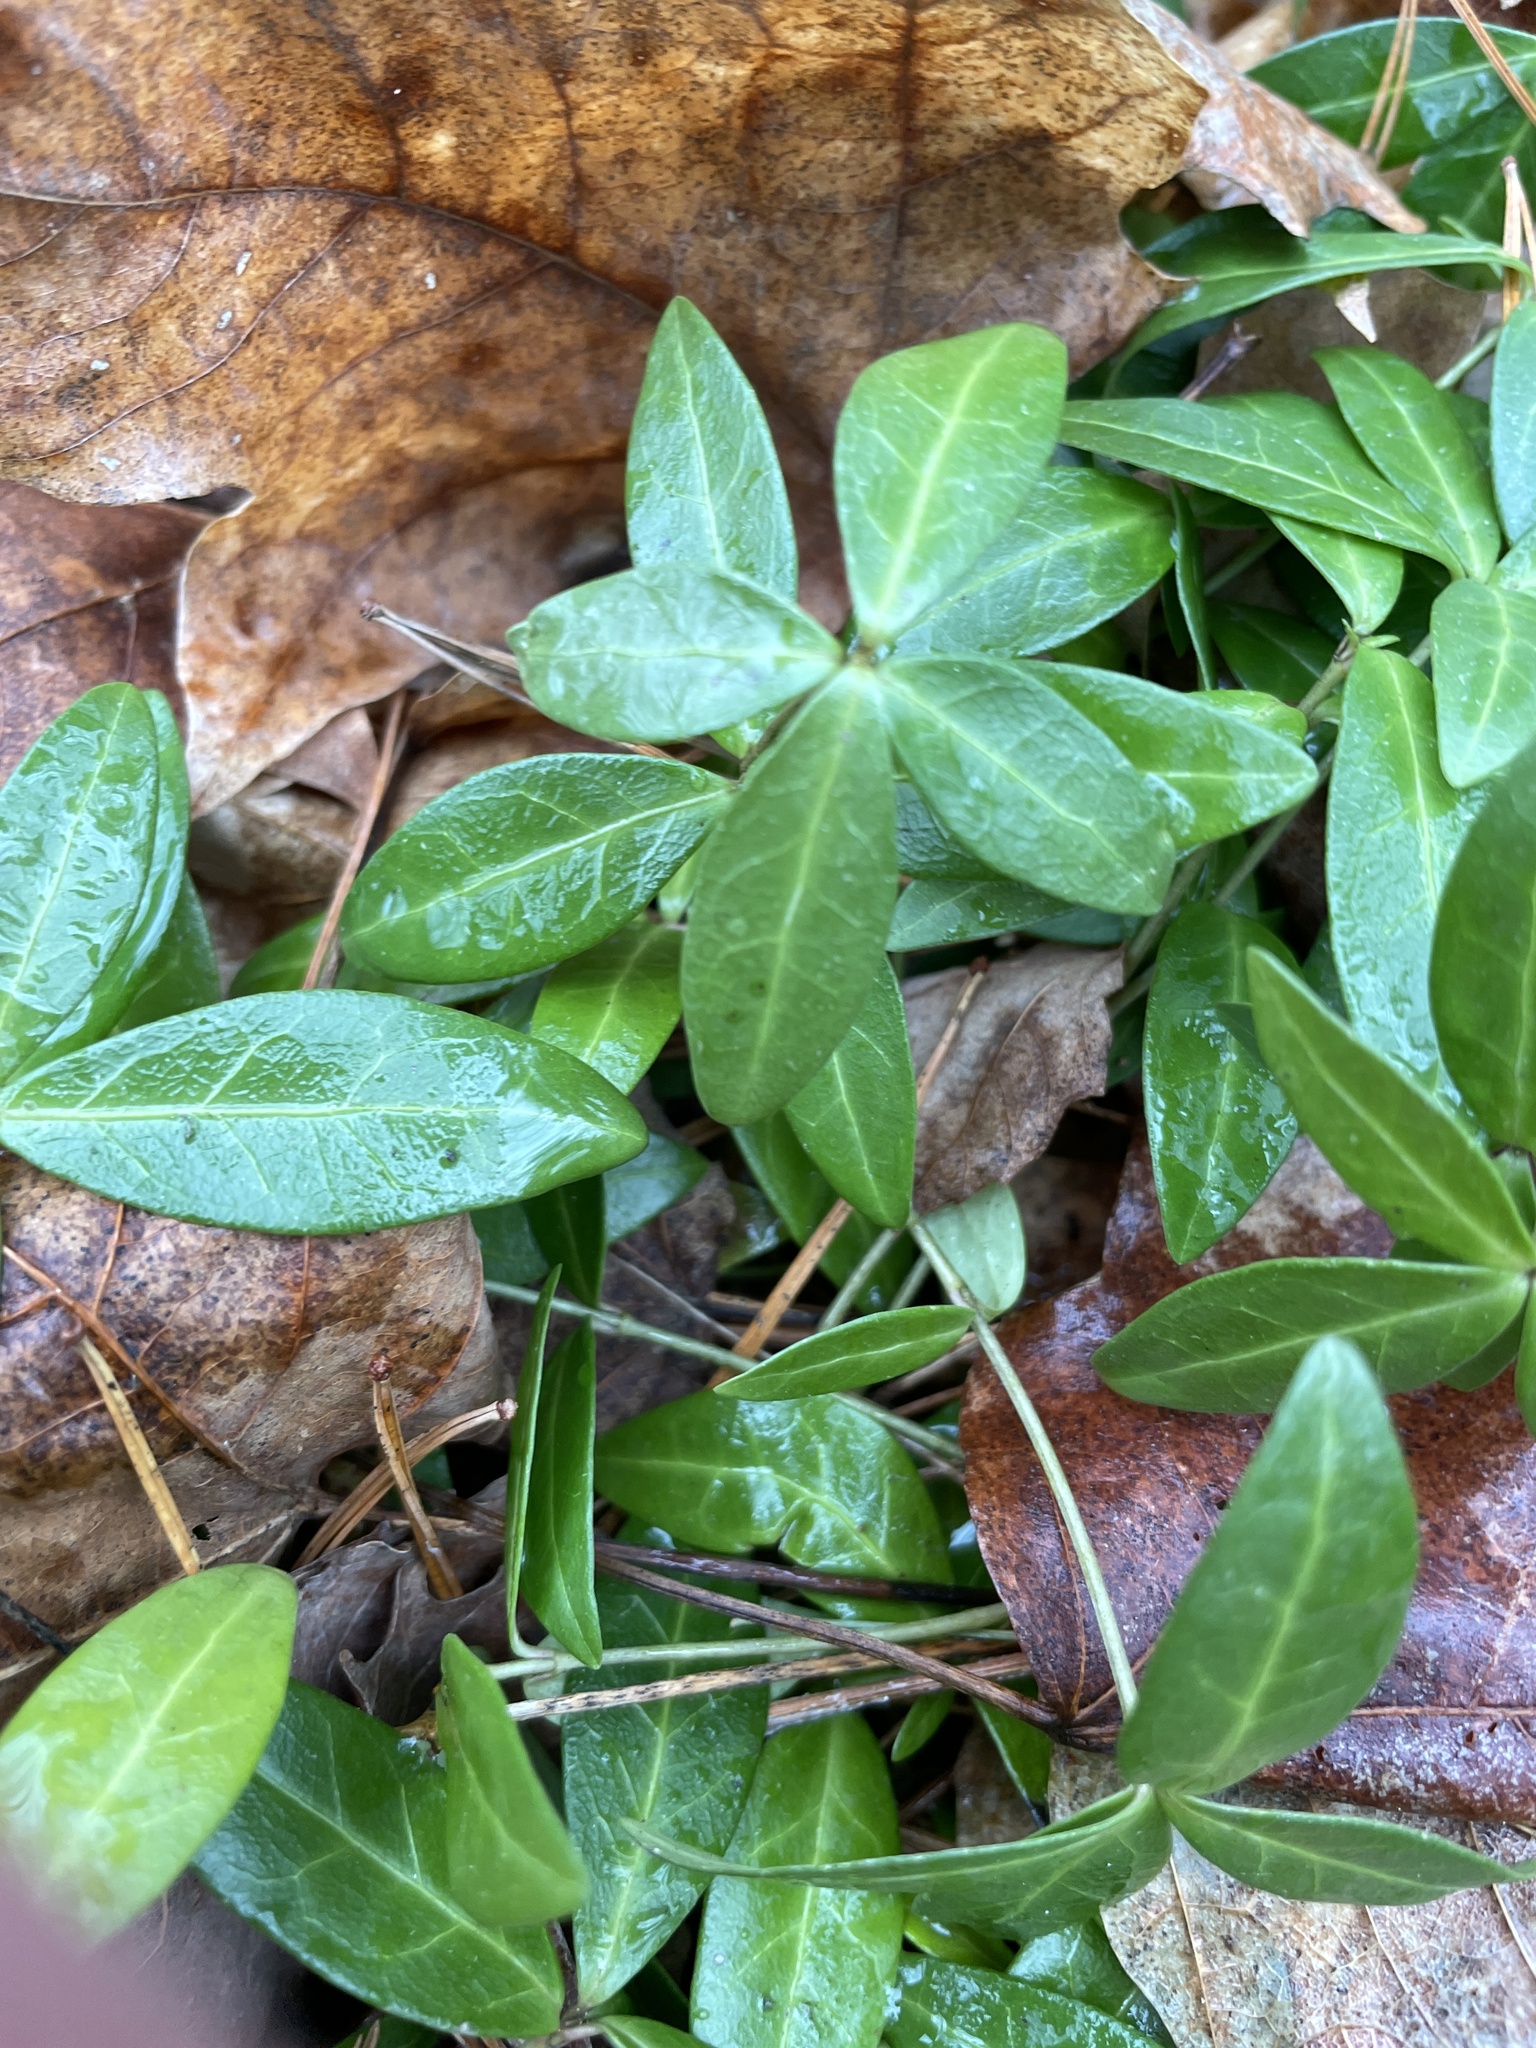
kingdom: Plantae
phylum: Tracheophyta
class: Magnoliopsida
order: Gentianales
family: Apocynaceae
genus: Vinca
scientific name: Vinca minor
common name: Lesser periwinkle
